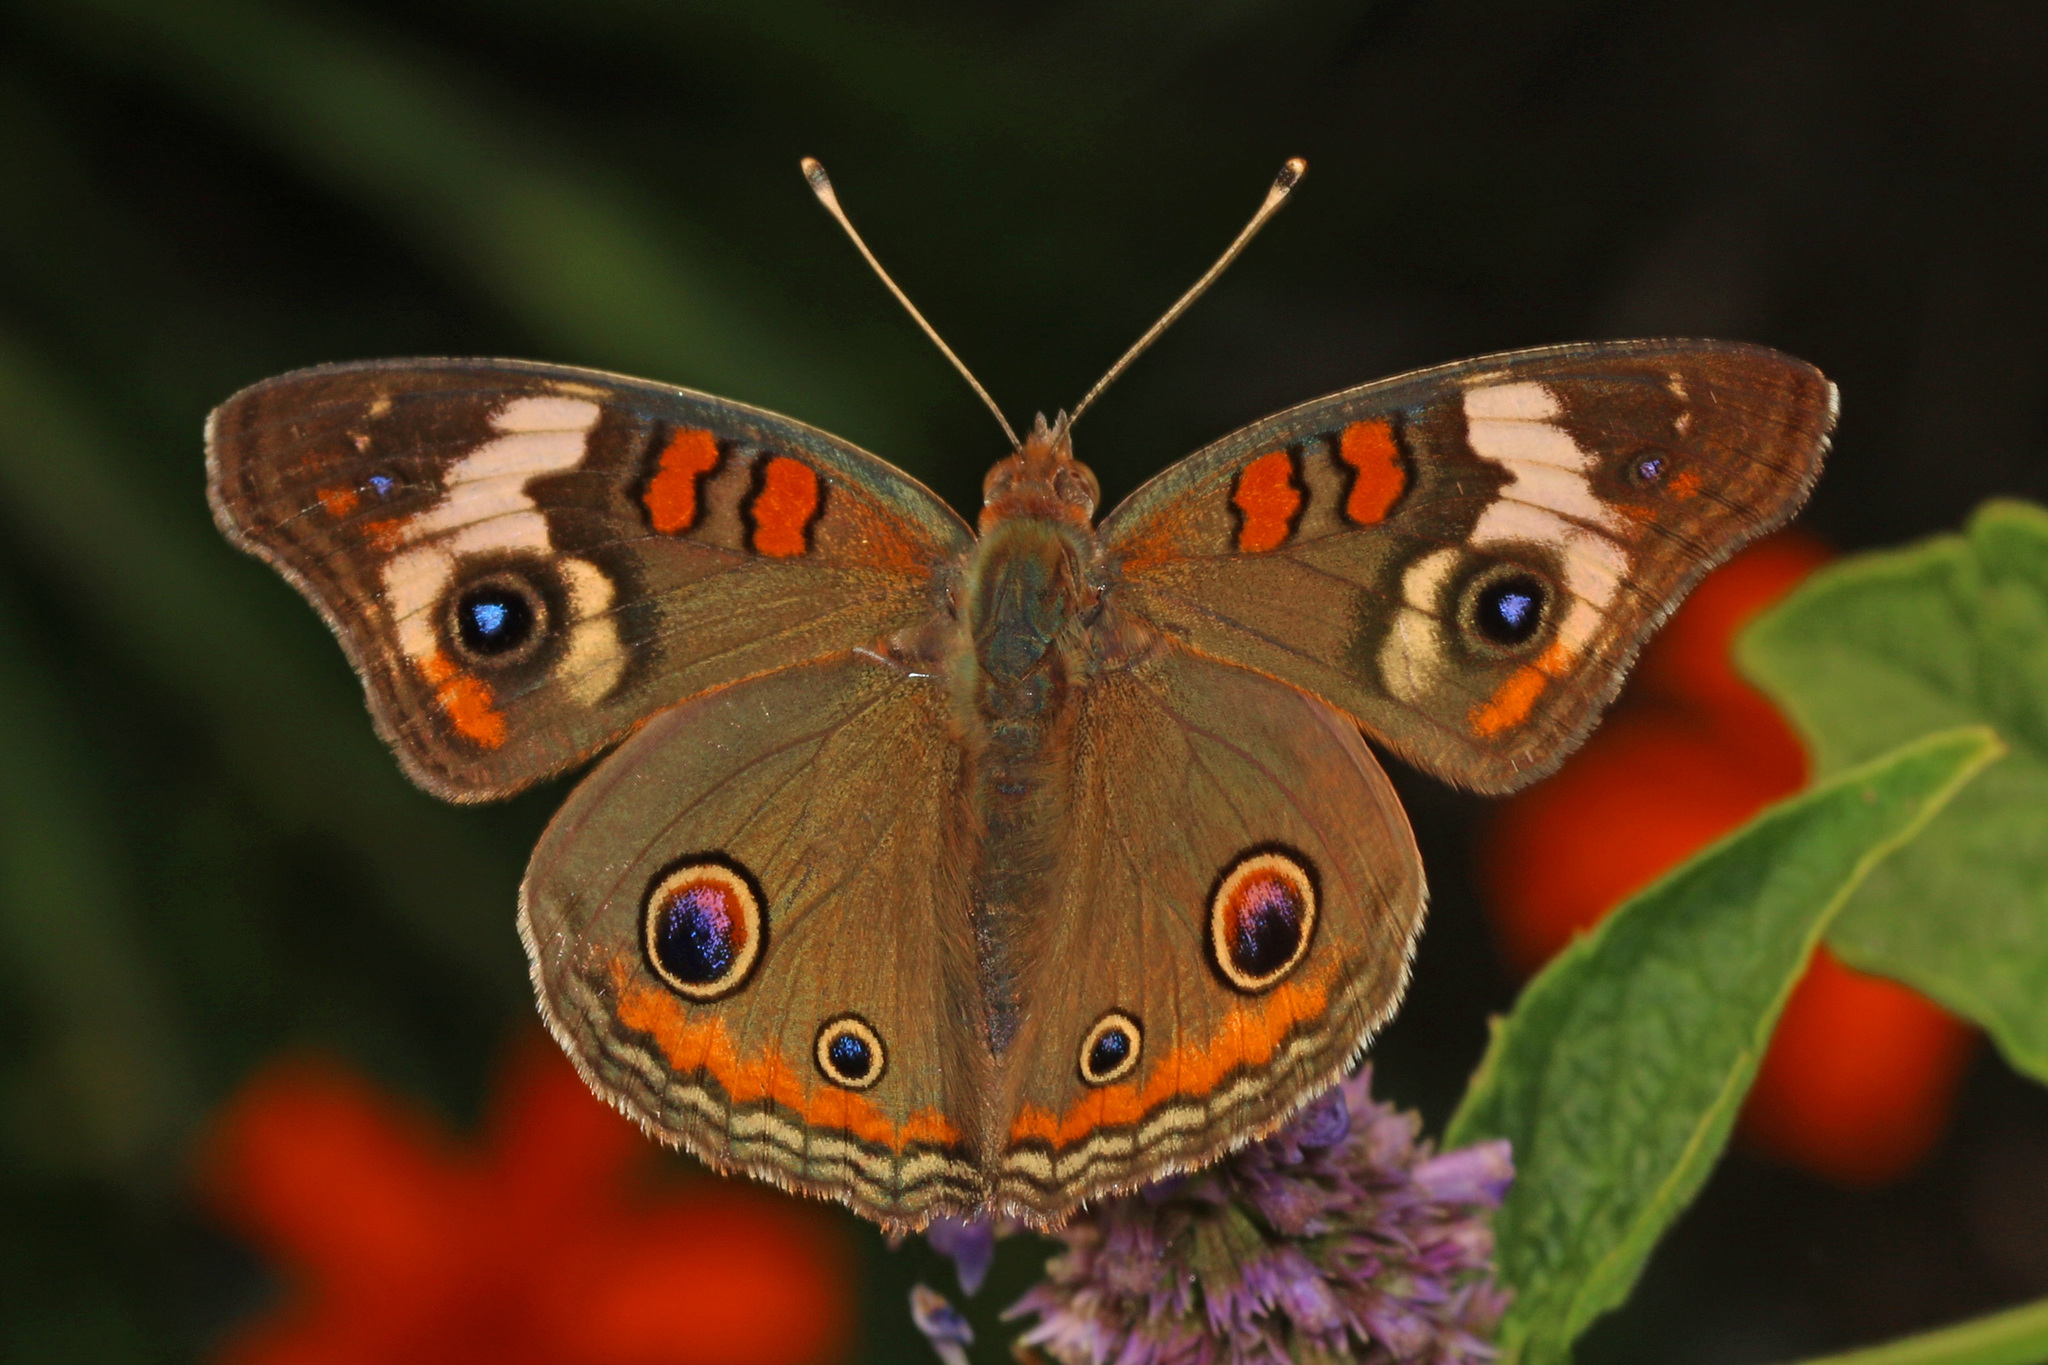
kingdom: Animalia
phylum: Arthropoda
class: Insecta
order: Lepidoptera
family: Nymphalidae
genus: Junonia
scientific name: Junonia coenia
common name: Common buckeye
